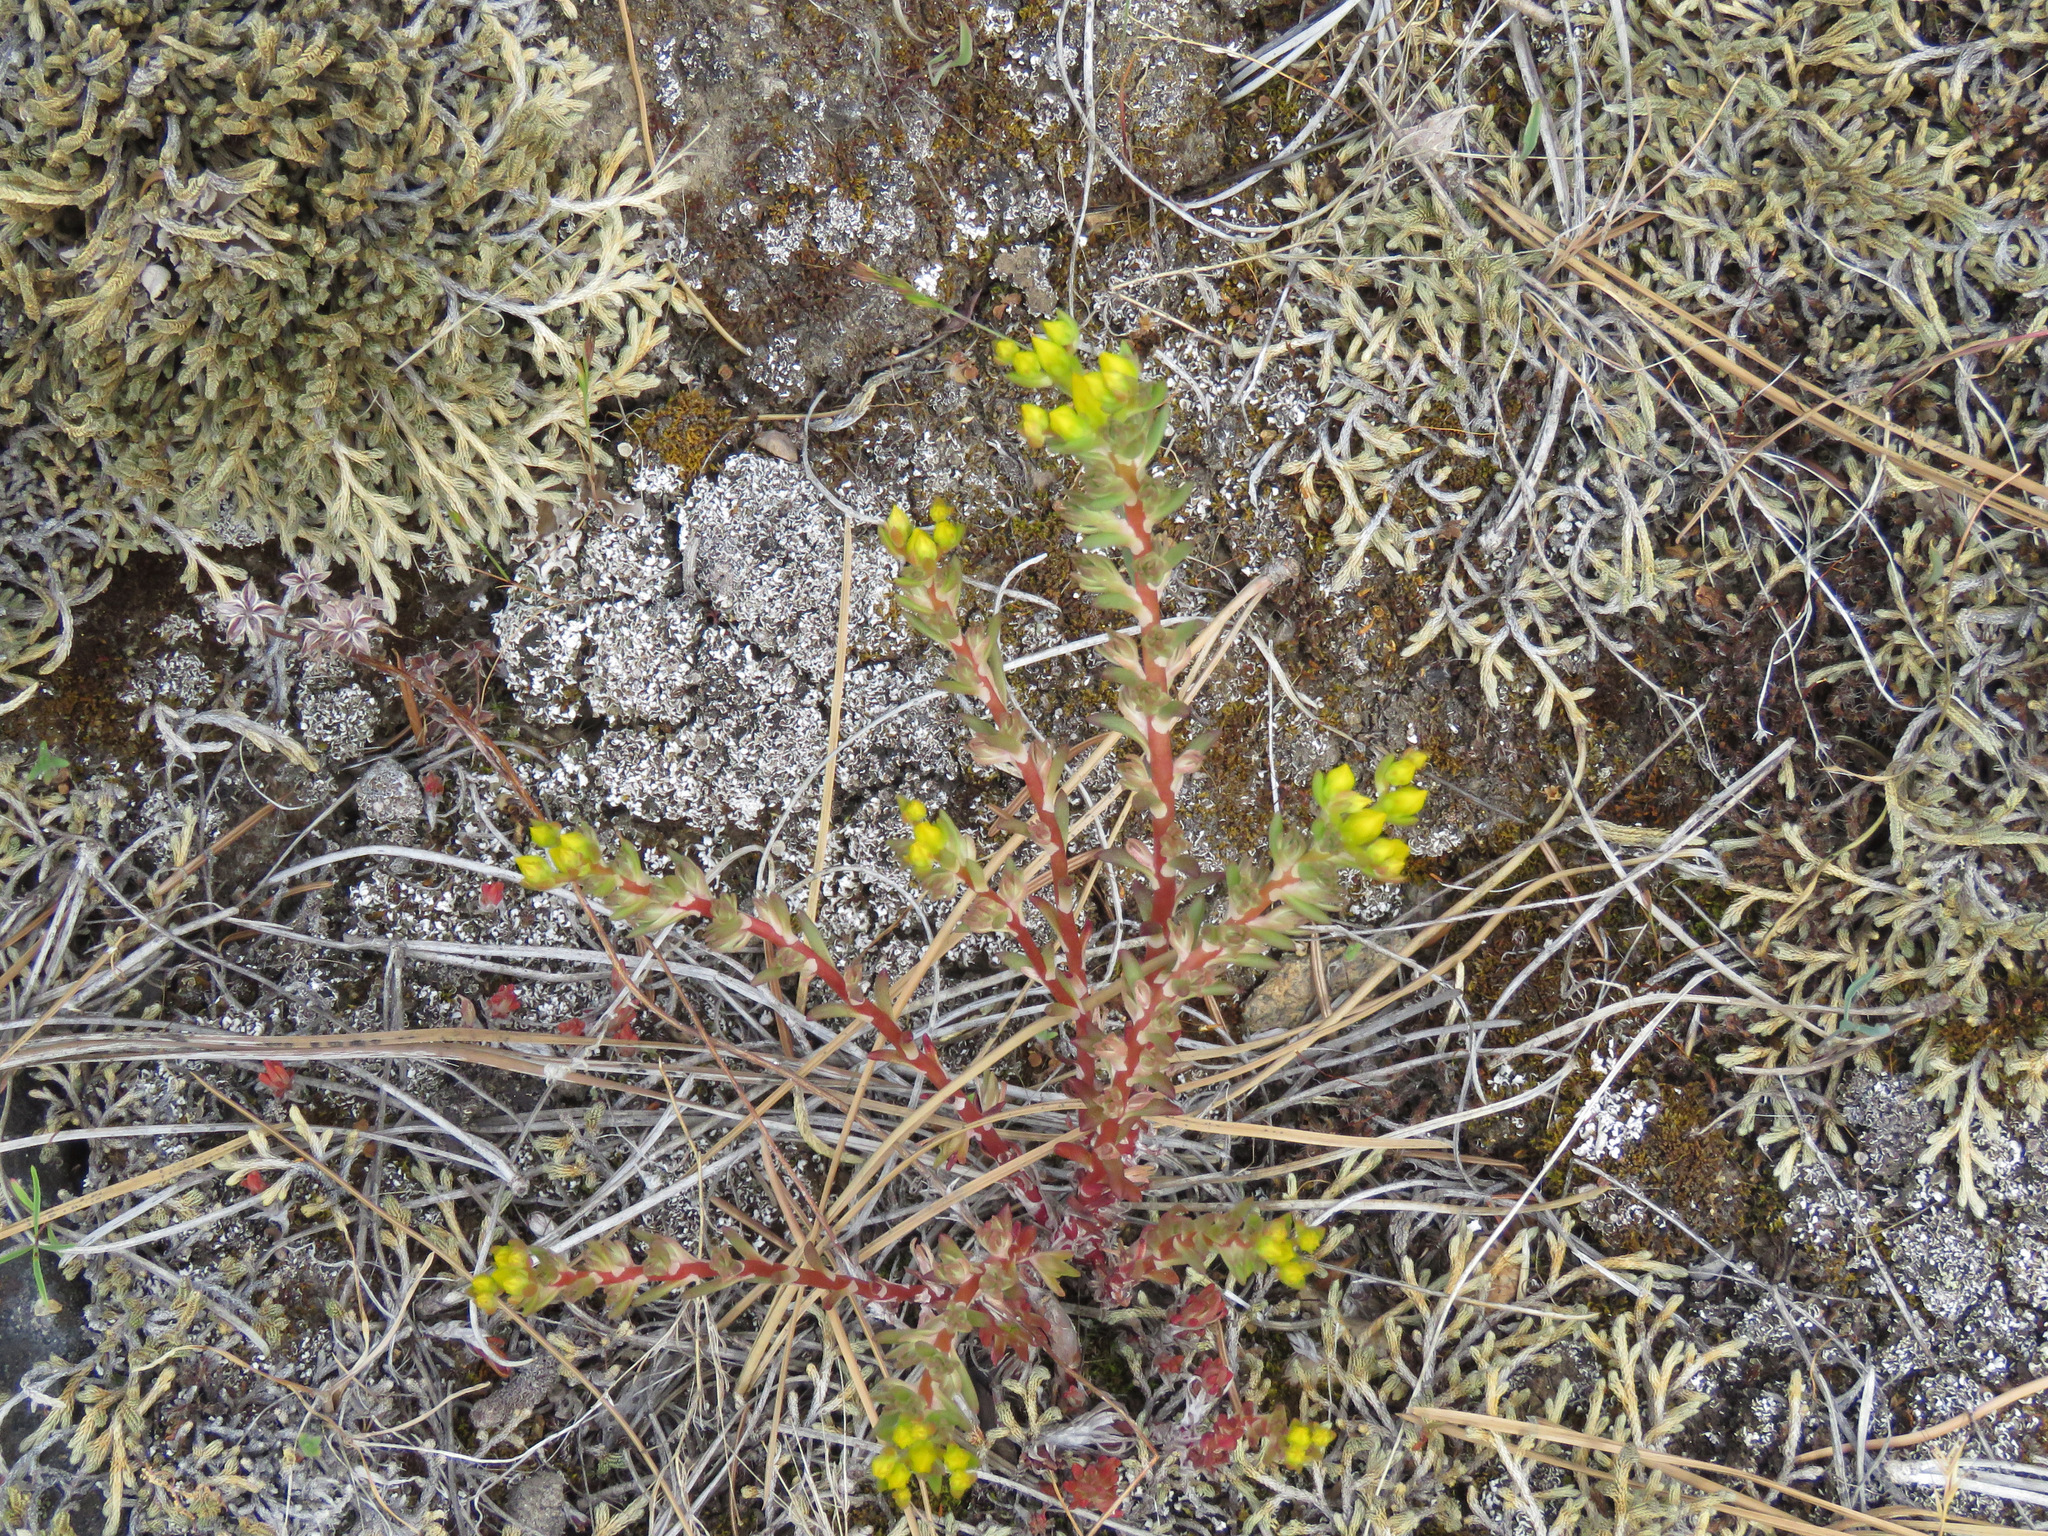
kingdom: Plantae
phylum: Tracheophyta
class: Magnoliopsida
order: Saxifragales
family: Crassulaceae
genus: Sedum
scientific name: Sedum stenopetalum
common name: Narrow-petaled stonecrop
